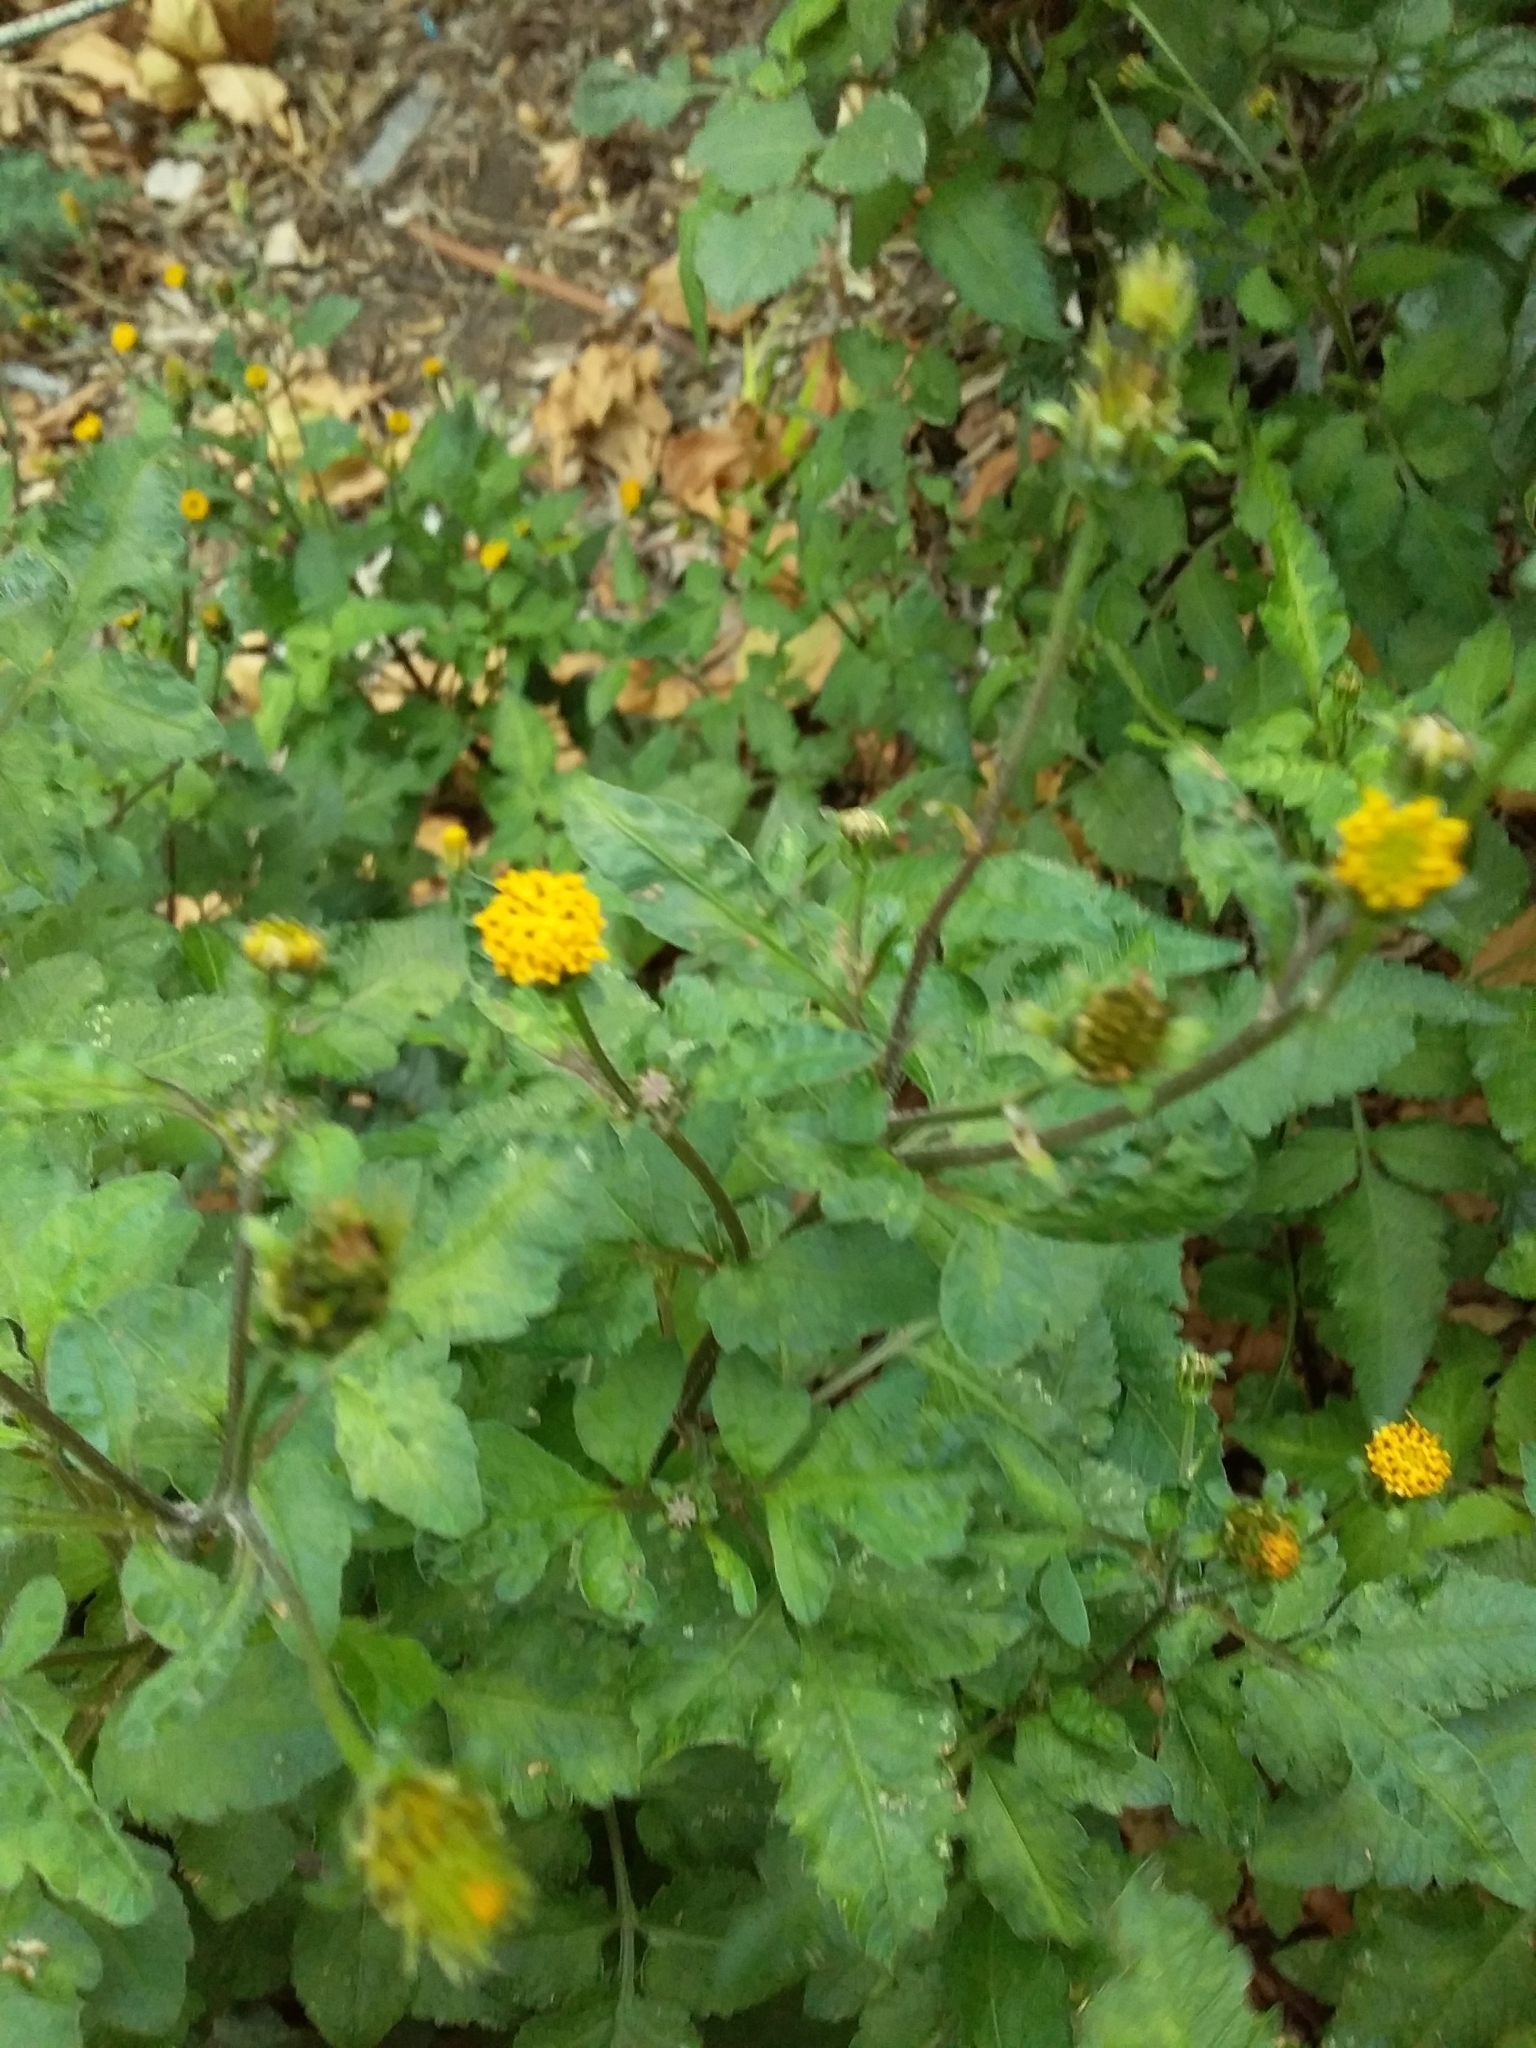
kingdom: Plantae
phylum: Tracheophyta
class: Magnoliopsida
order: Asterales
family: Asteraceae
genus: Bidens
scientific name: Bidens pilosa
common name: Black-jack
